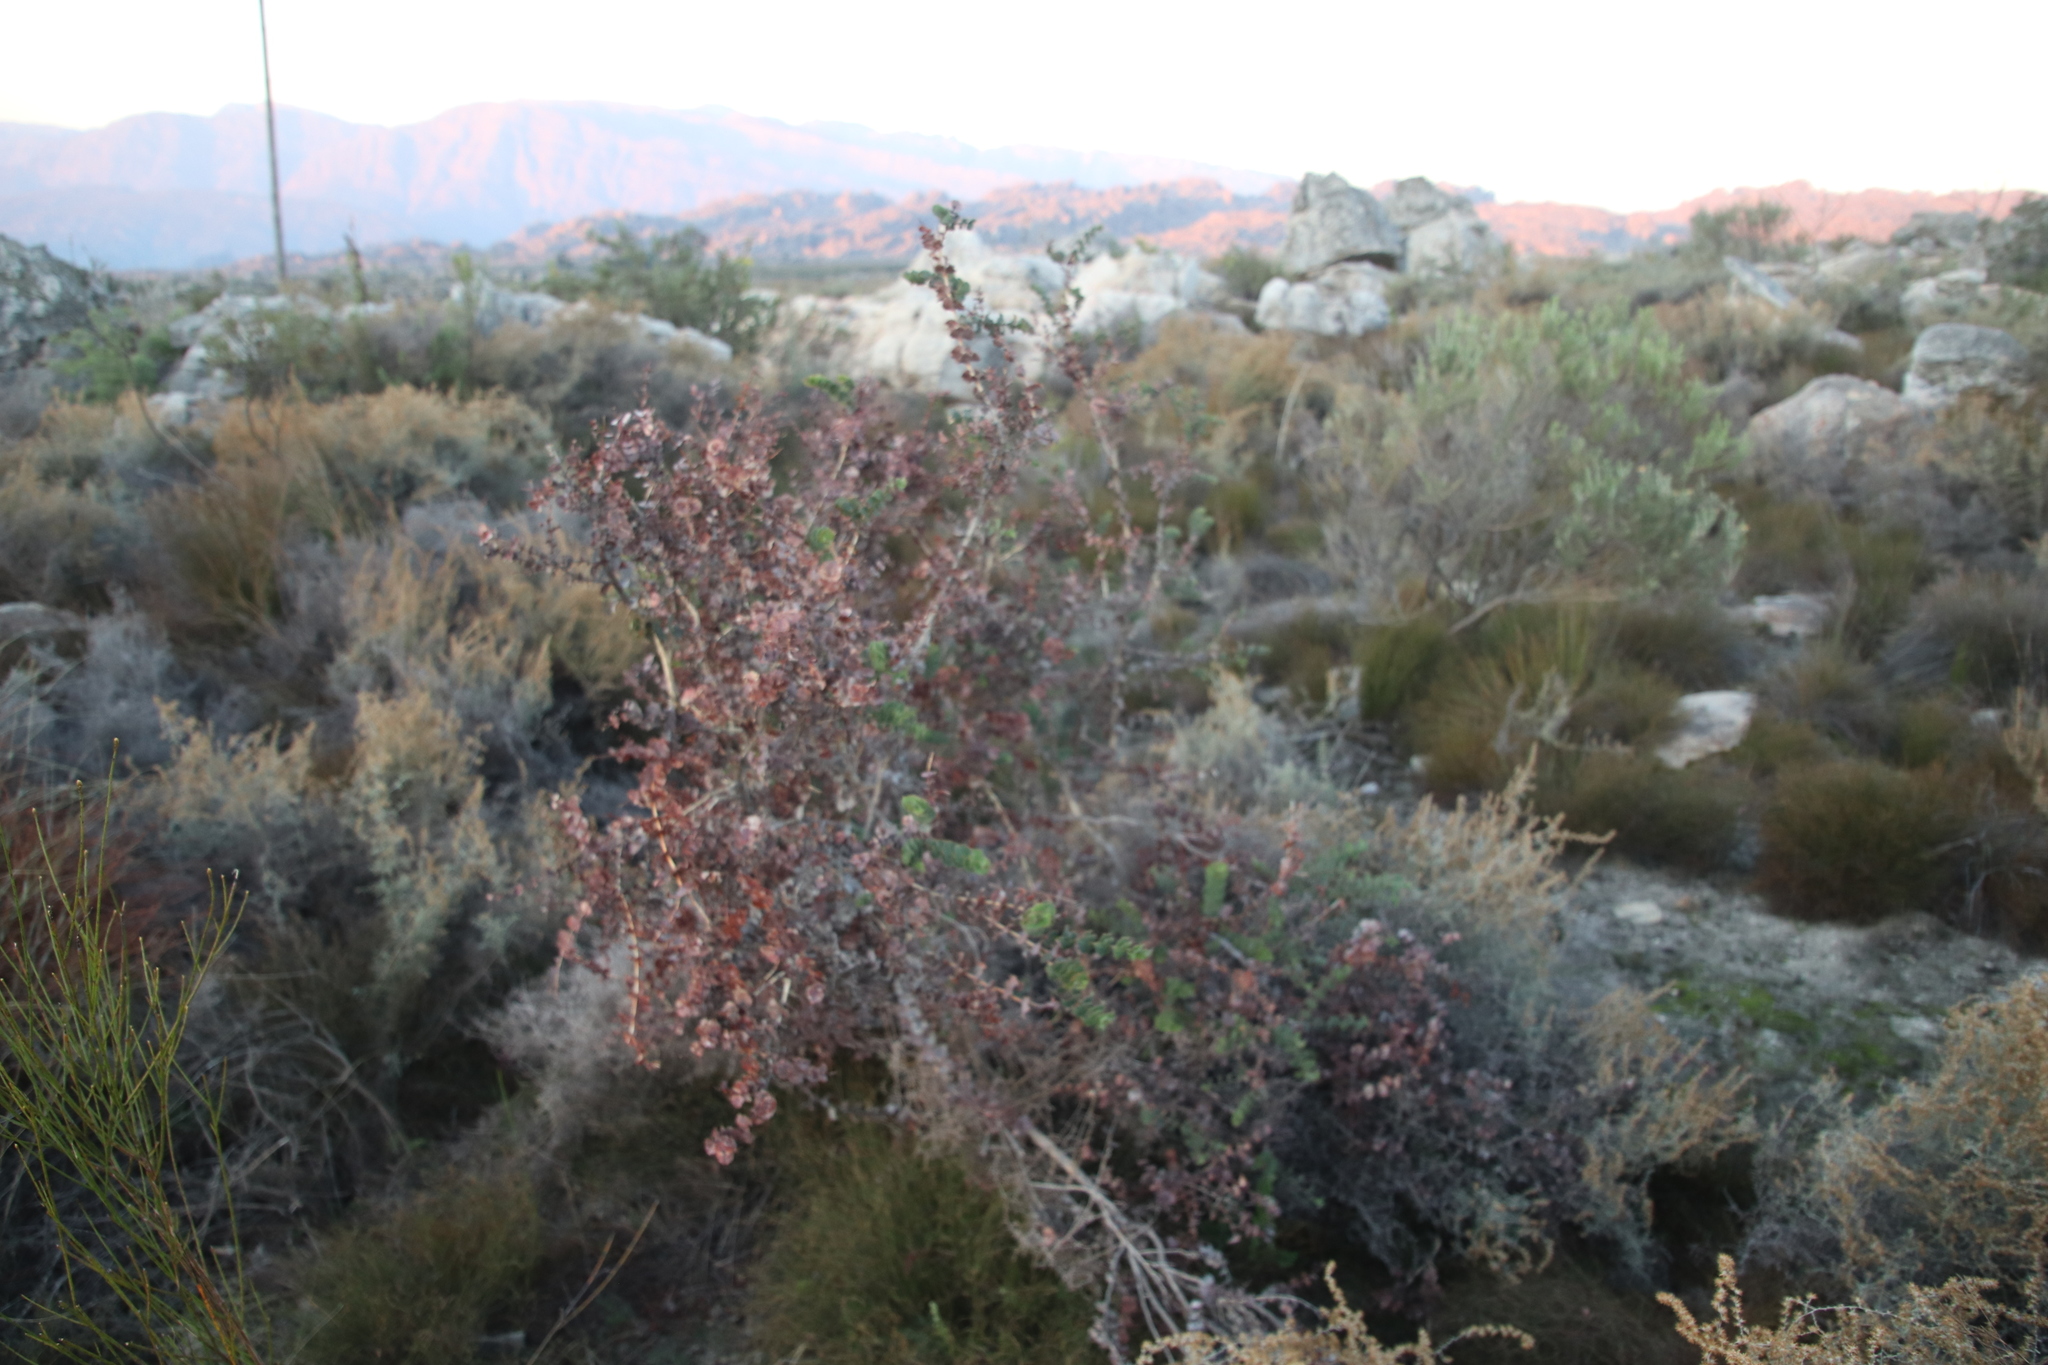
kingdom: Plantae
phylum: Tracheophyta
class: Magnoliopsida
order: Fabales
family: Fabaceae
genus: Aspalathus
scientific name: Aspalathus perfoliata
